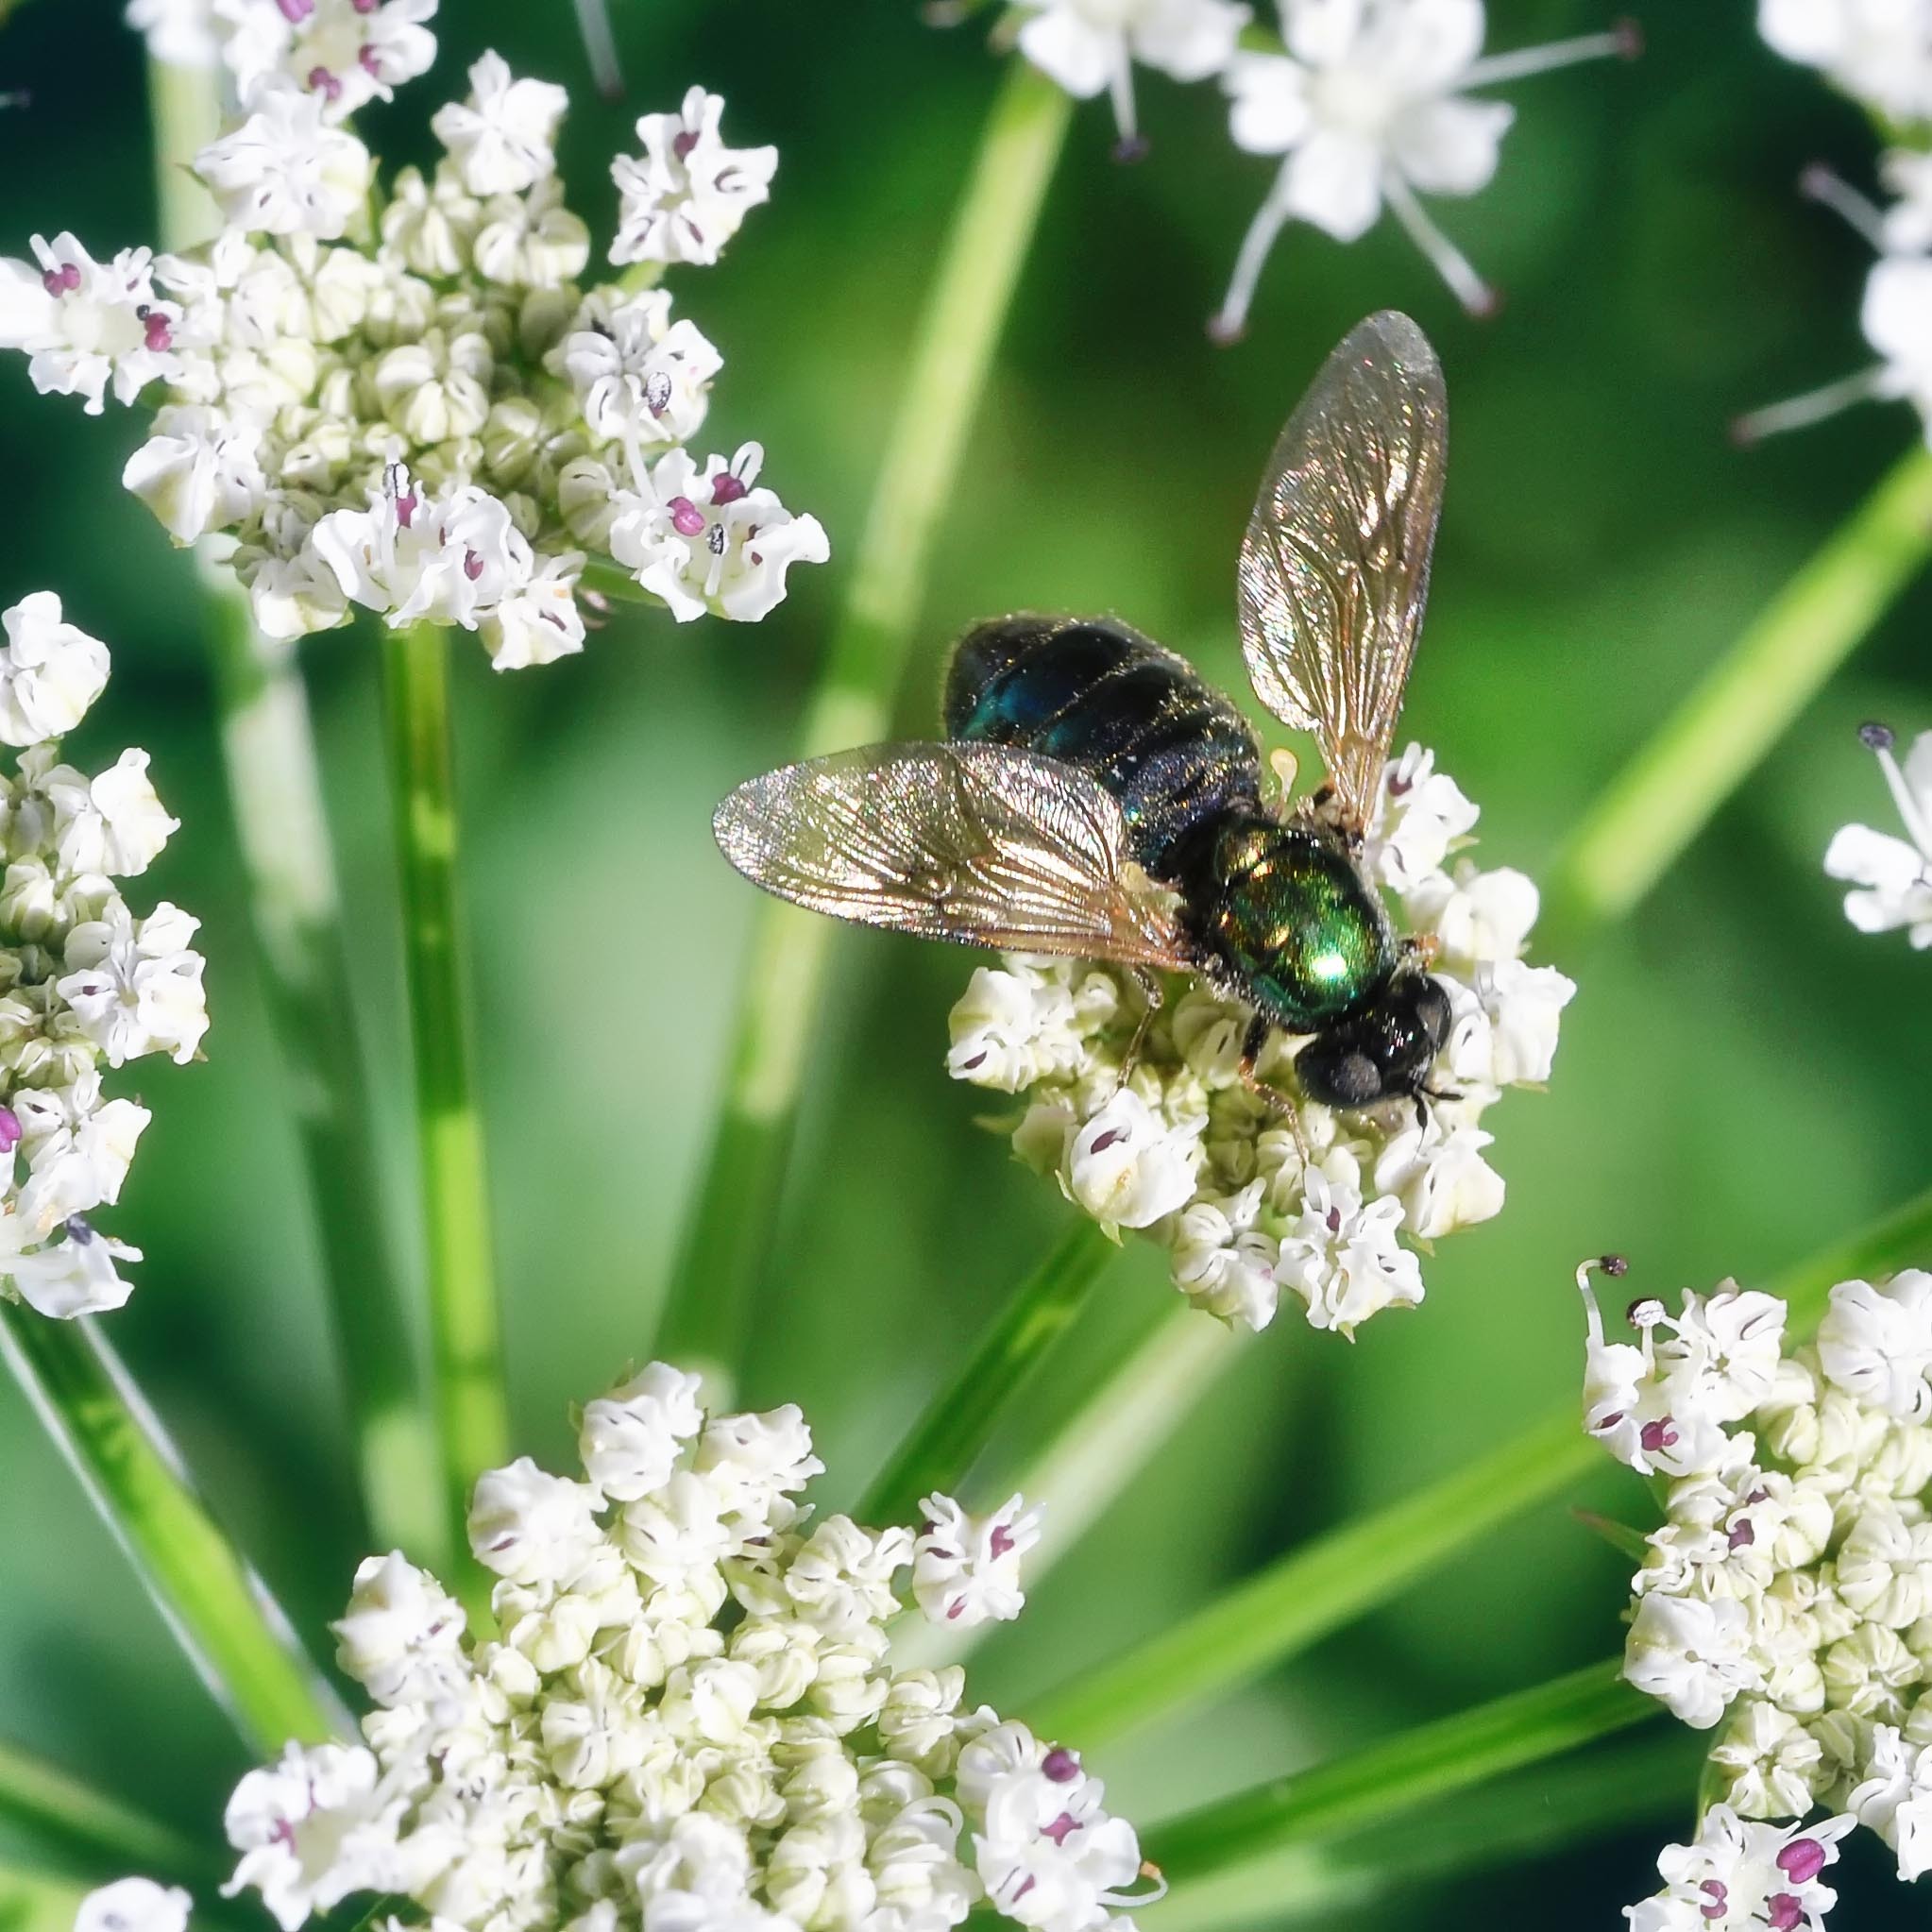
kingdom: Animalia
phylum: Arthropoda
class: Insecta
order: Diptera
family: Stratiomyidae
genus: Chloromyia
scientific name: Chloromyia formosa
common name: Soldier fly
